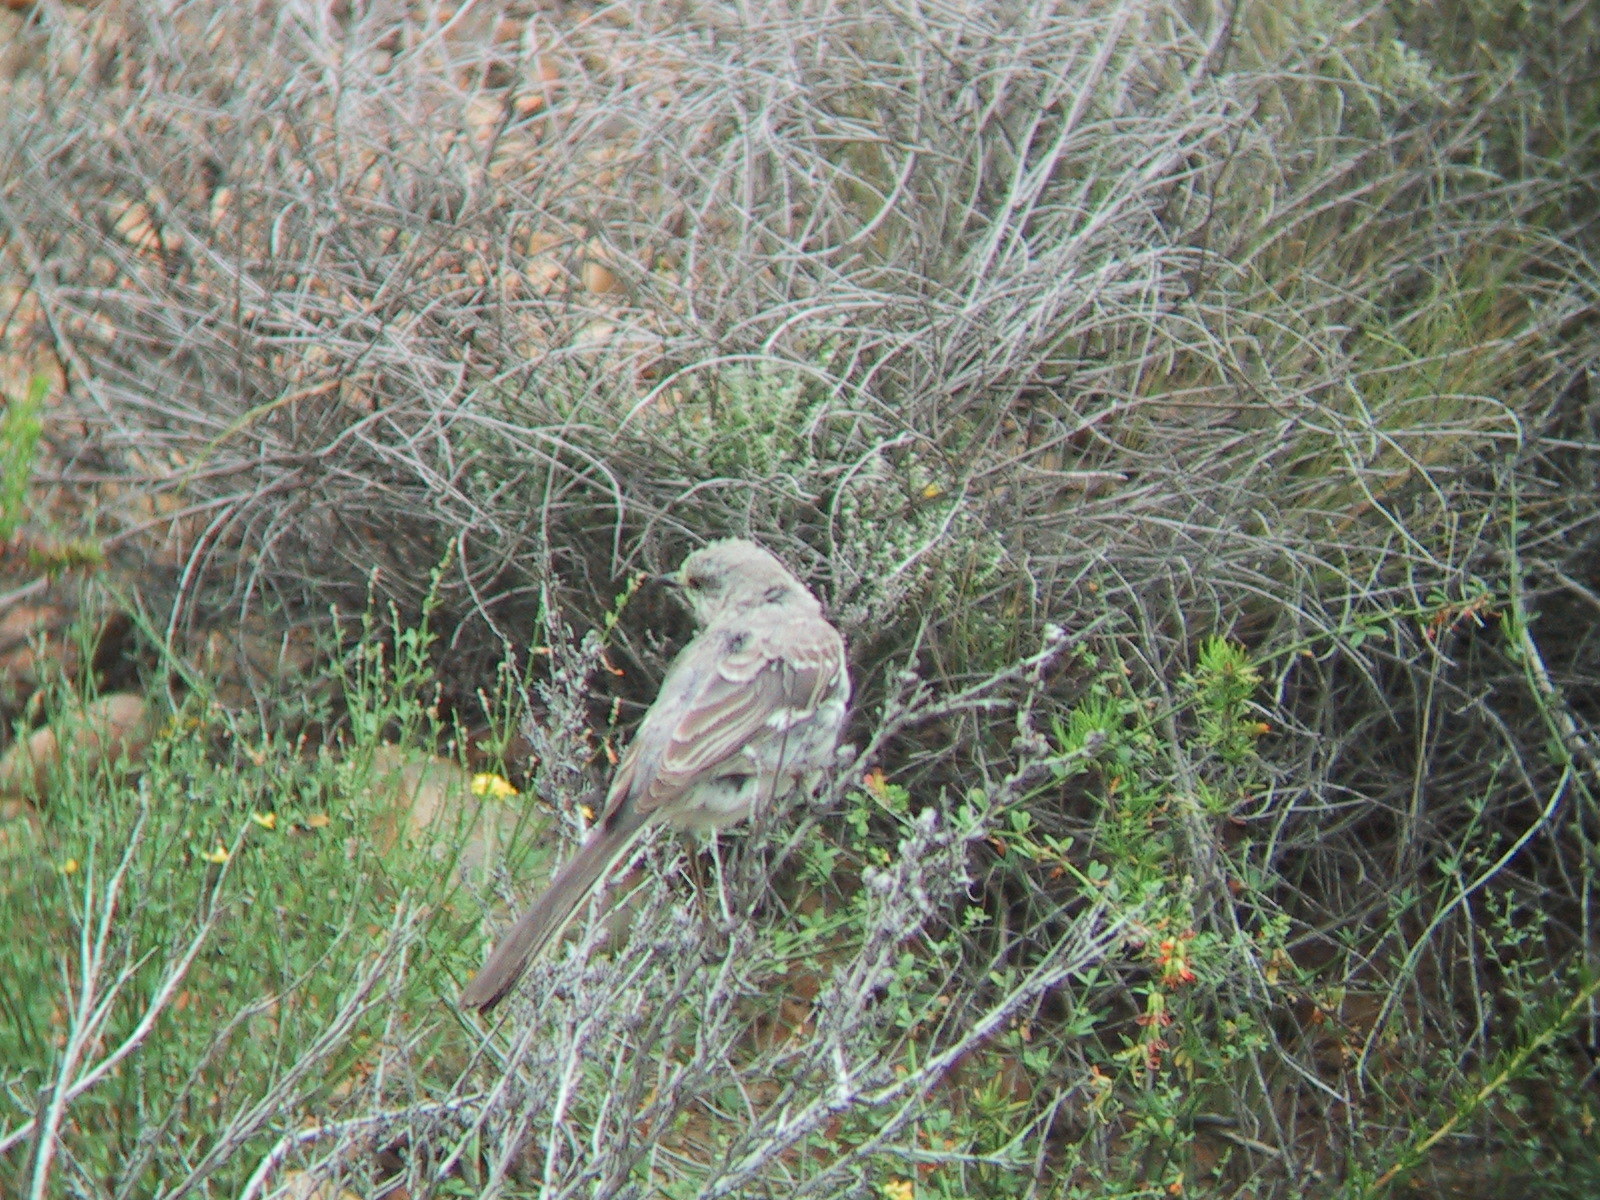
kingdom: Animalia
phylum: Chordata
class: Aves
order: Passeriformes
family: Mimidae
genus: Mimus
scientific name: Mimus polyglottos
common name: Northern mockingbird
